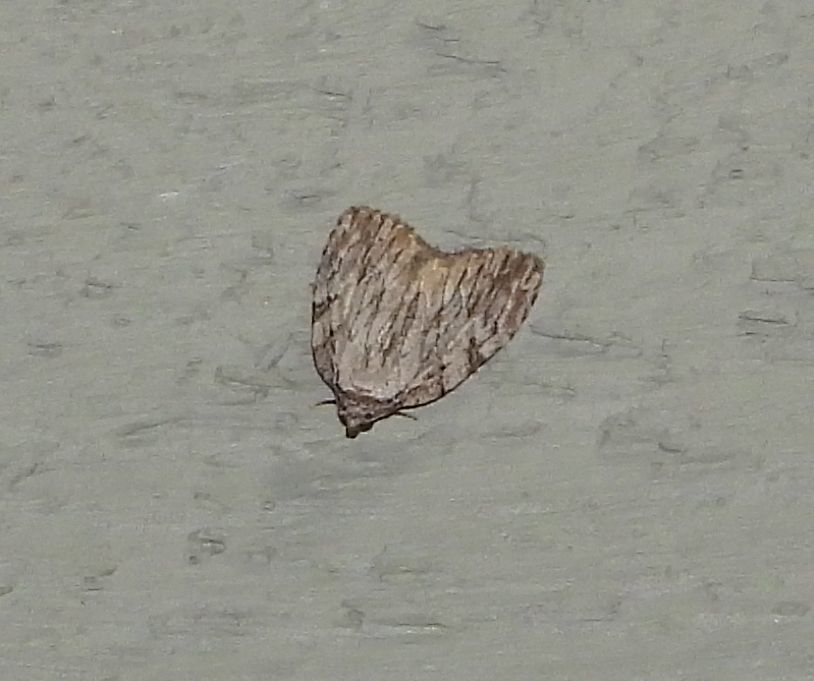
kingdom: Animalia
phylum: Arthropoda
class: Insecta
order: Lepidoptera
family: Noctuidae
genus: Balsa
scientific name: Balsa tristrigella
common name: Three-lined balsa moth
